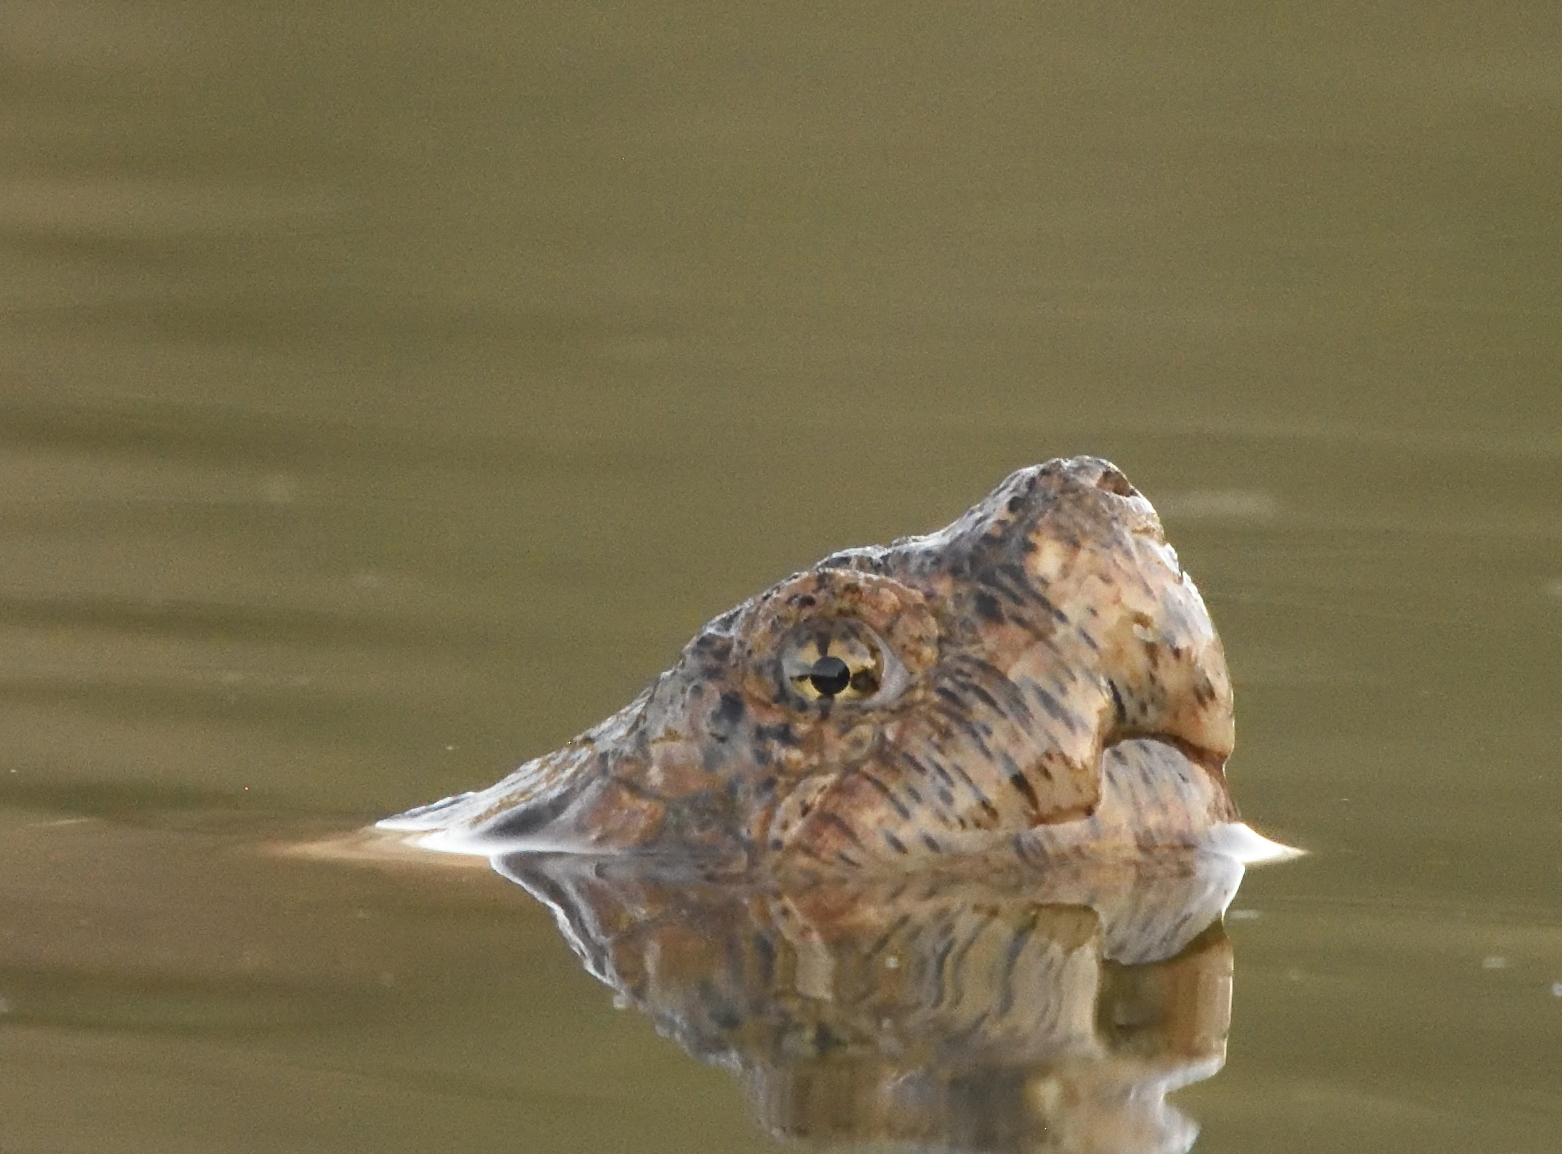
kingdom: Animalia
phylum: Chordata
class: Testudines
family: Chelydridae
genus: Chelydra
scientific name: Chelydra serpentina
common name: Common snapping turtle
